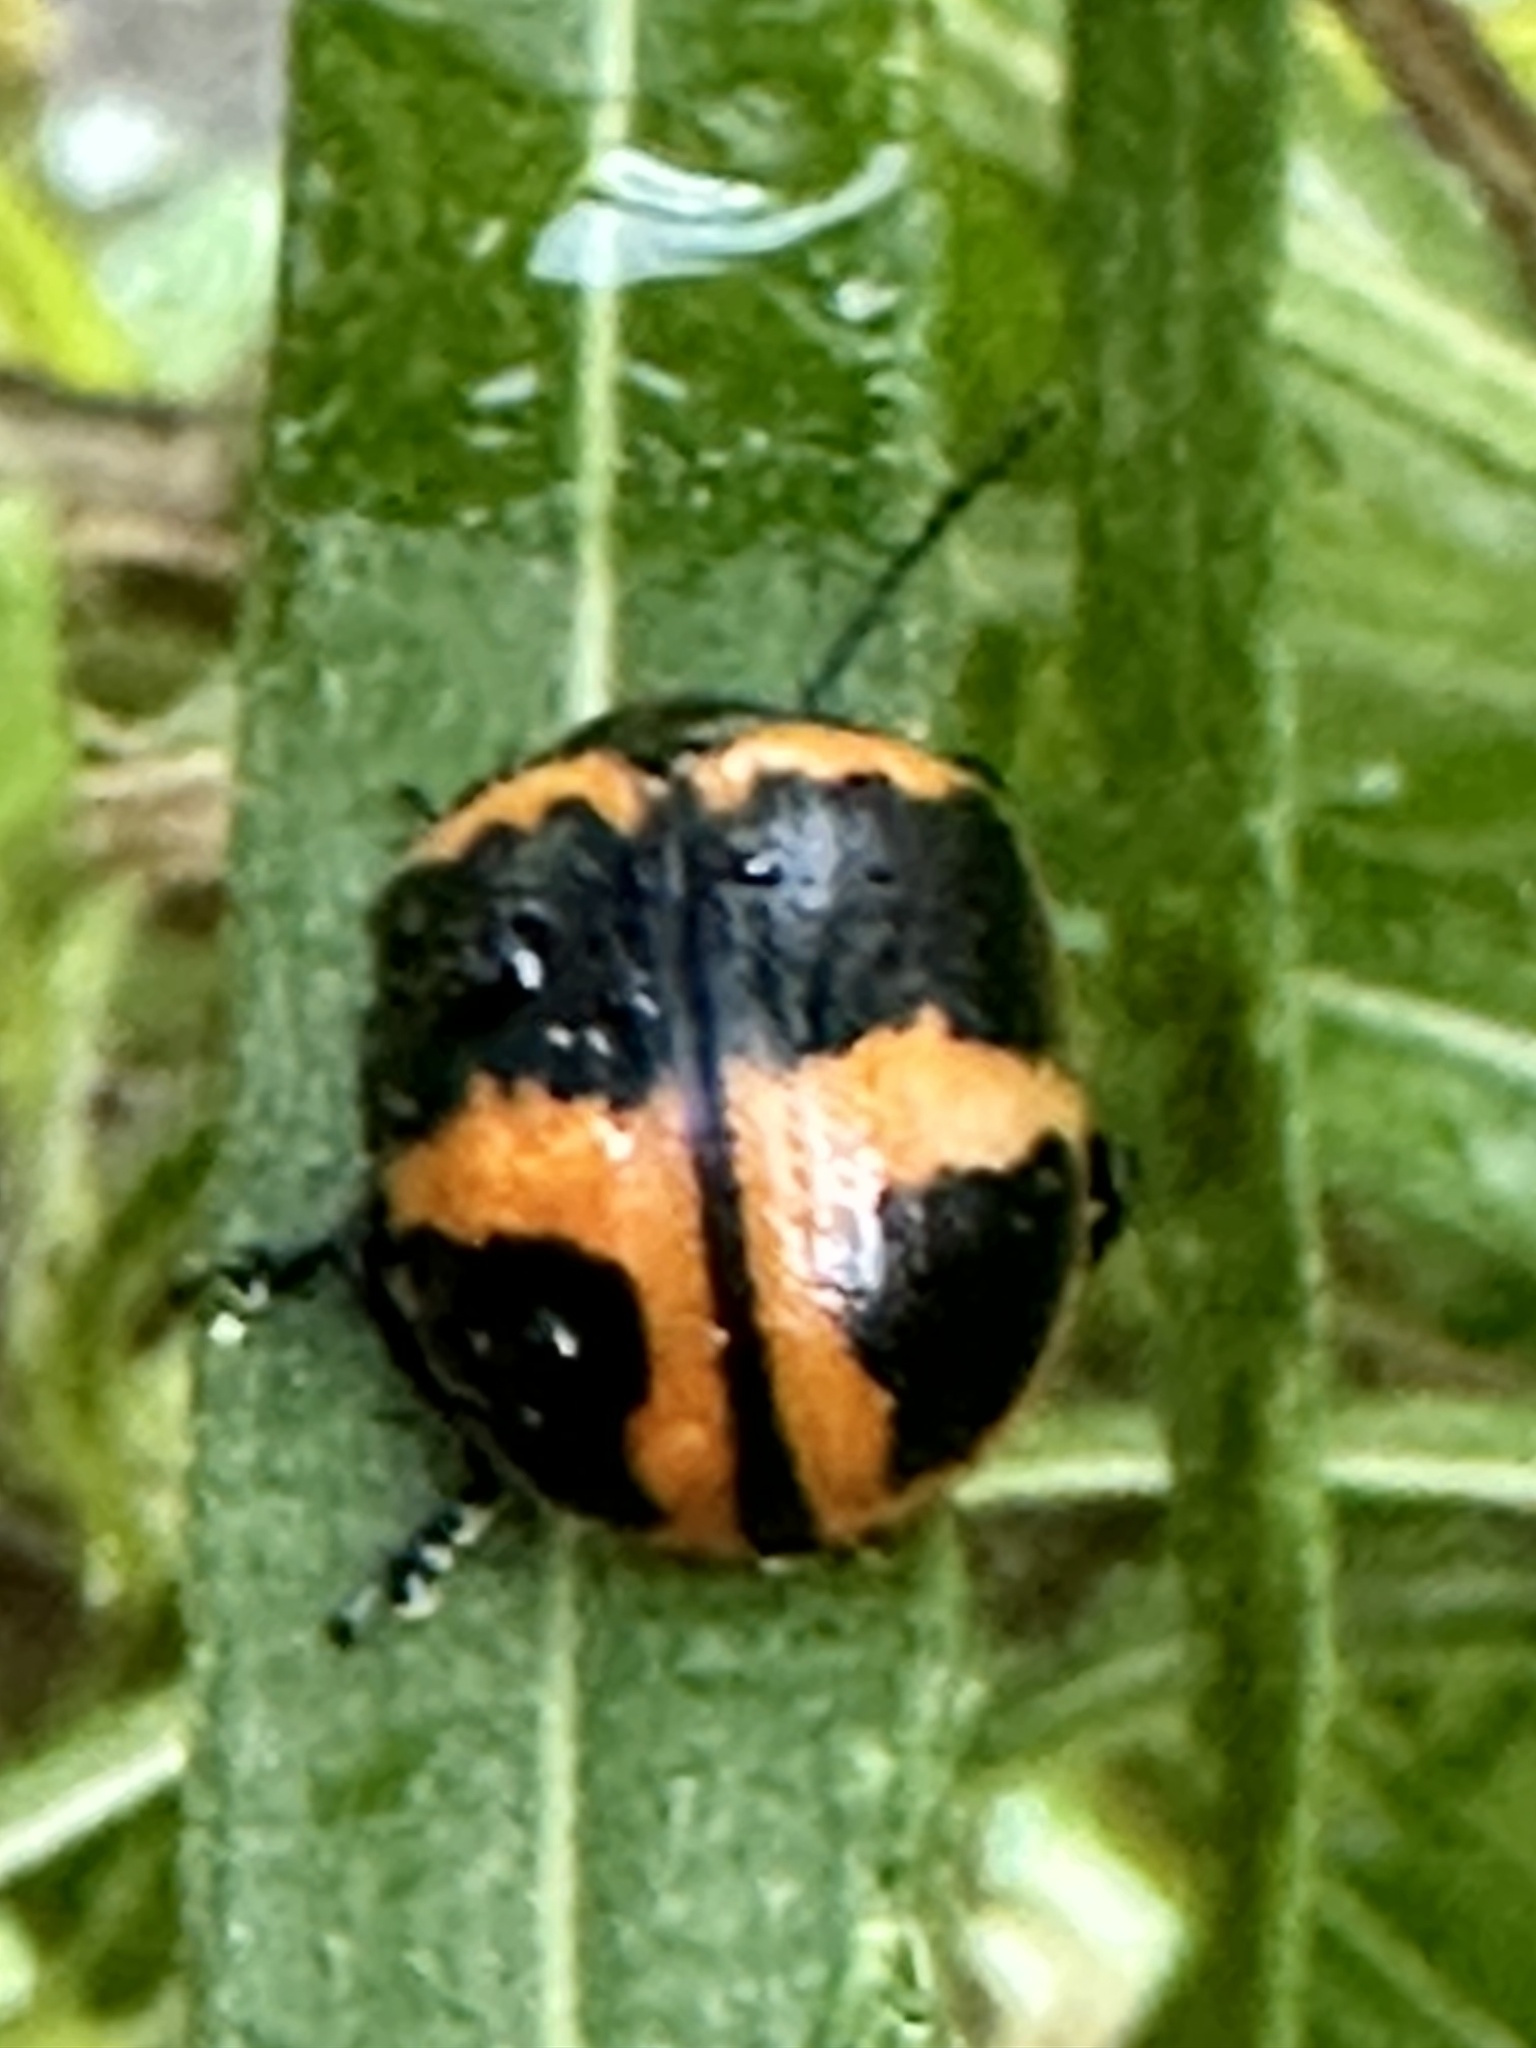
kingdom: Animalia
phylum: Arthropoda
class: Insecta
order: Coleoptera
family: Chrysomelidae
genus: Labidomera
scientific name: Labidomera clivicollis
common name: Swamp milkweed leaf beetle
